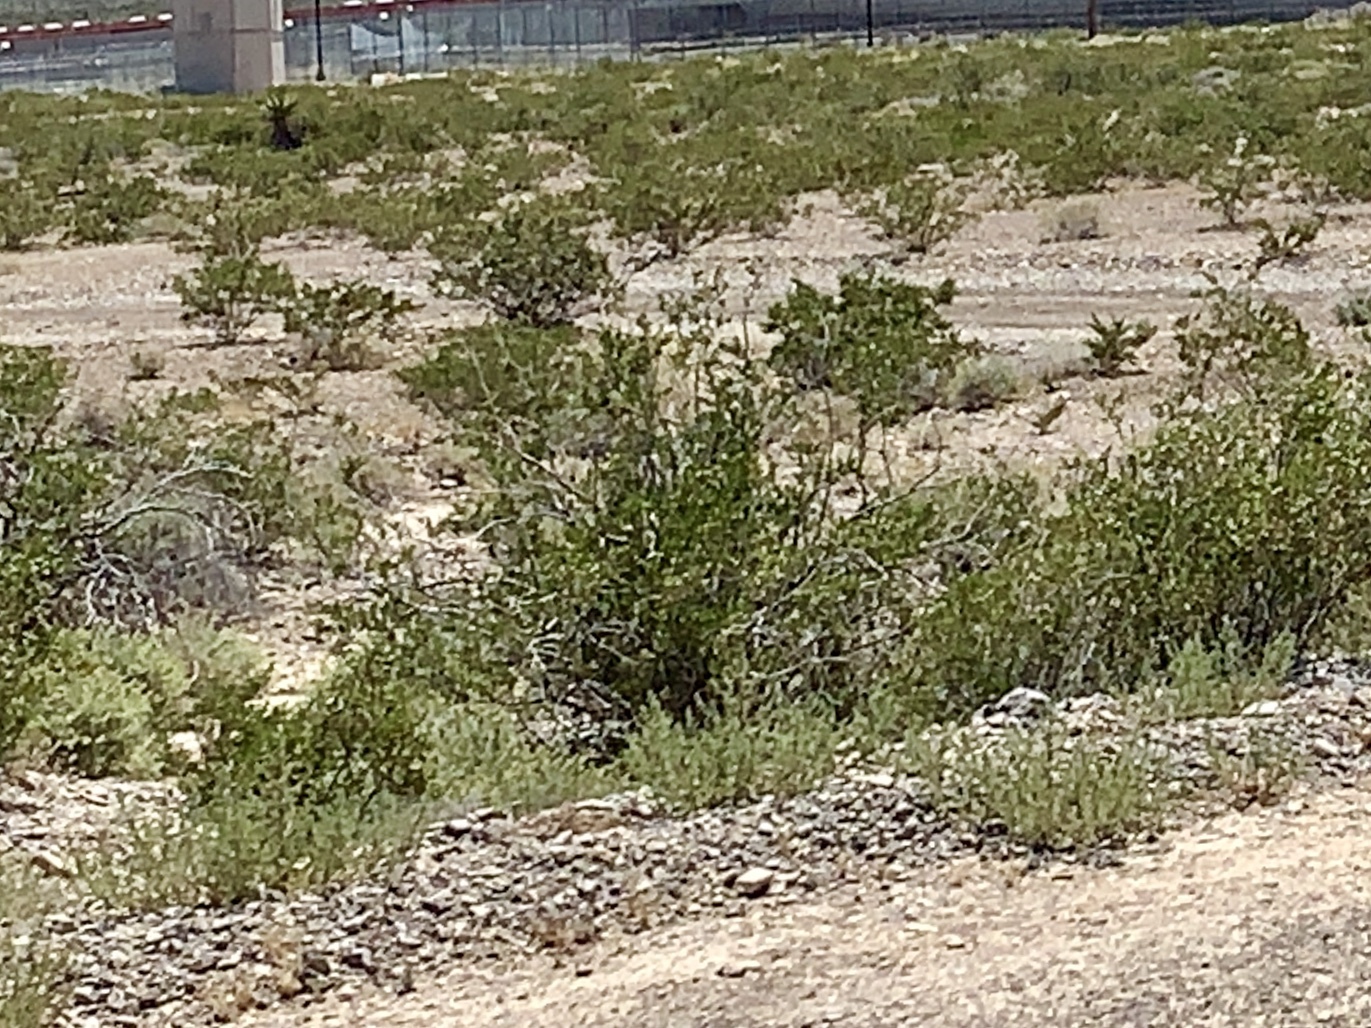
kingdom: Plantae
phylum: Tracheophyta
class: Magnoliopsida
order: Zygophyllales
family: Zygophyllaceae
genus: Larrea
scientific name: Larrea tridentata
